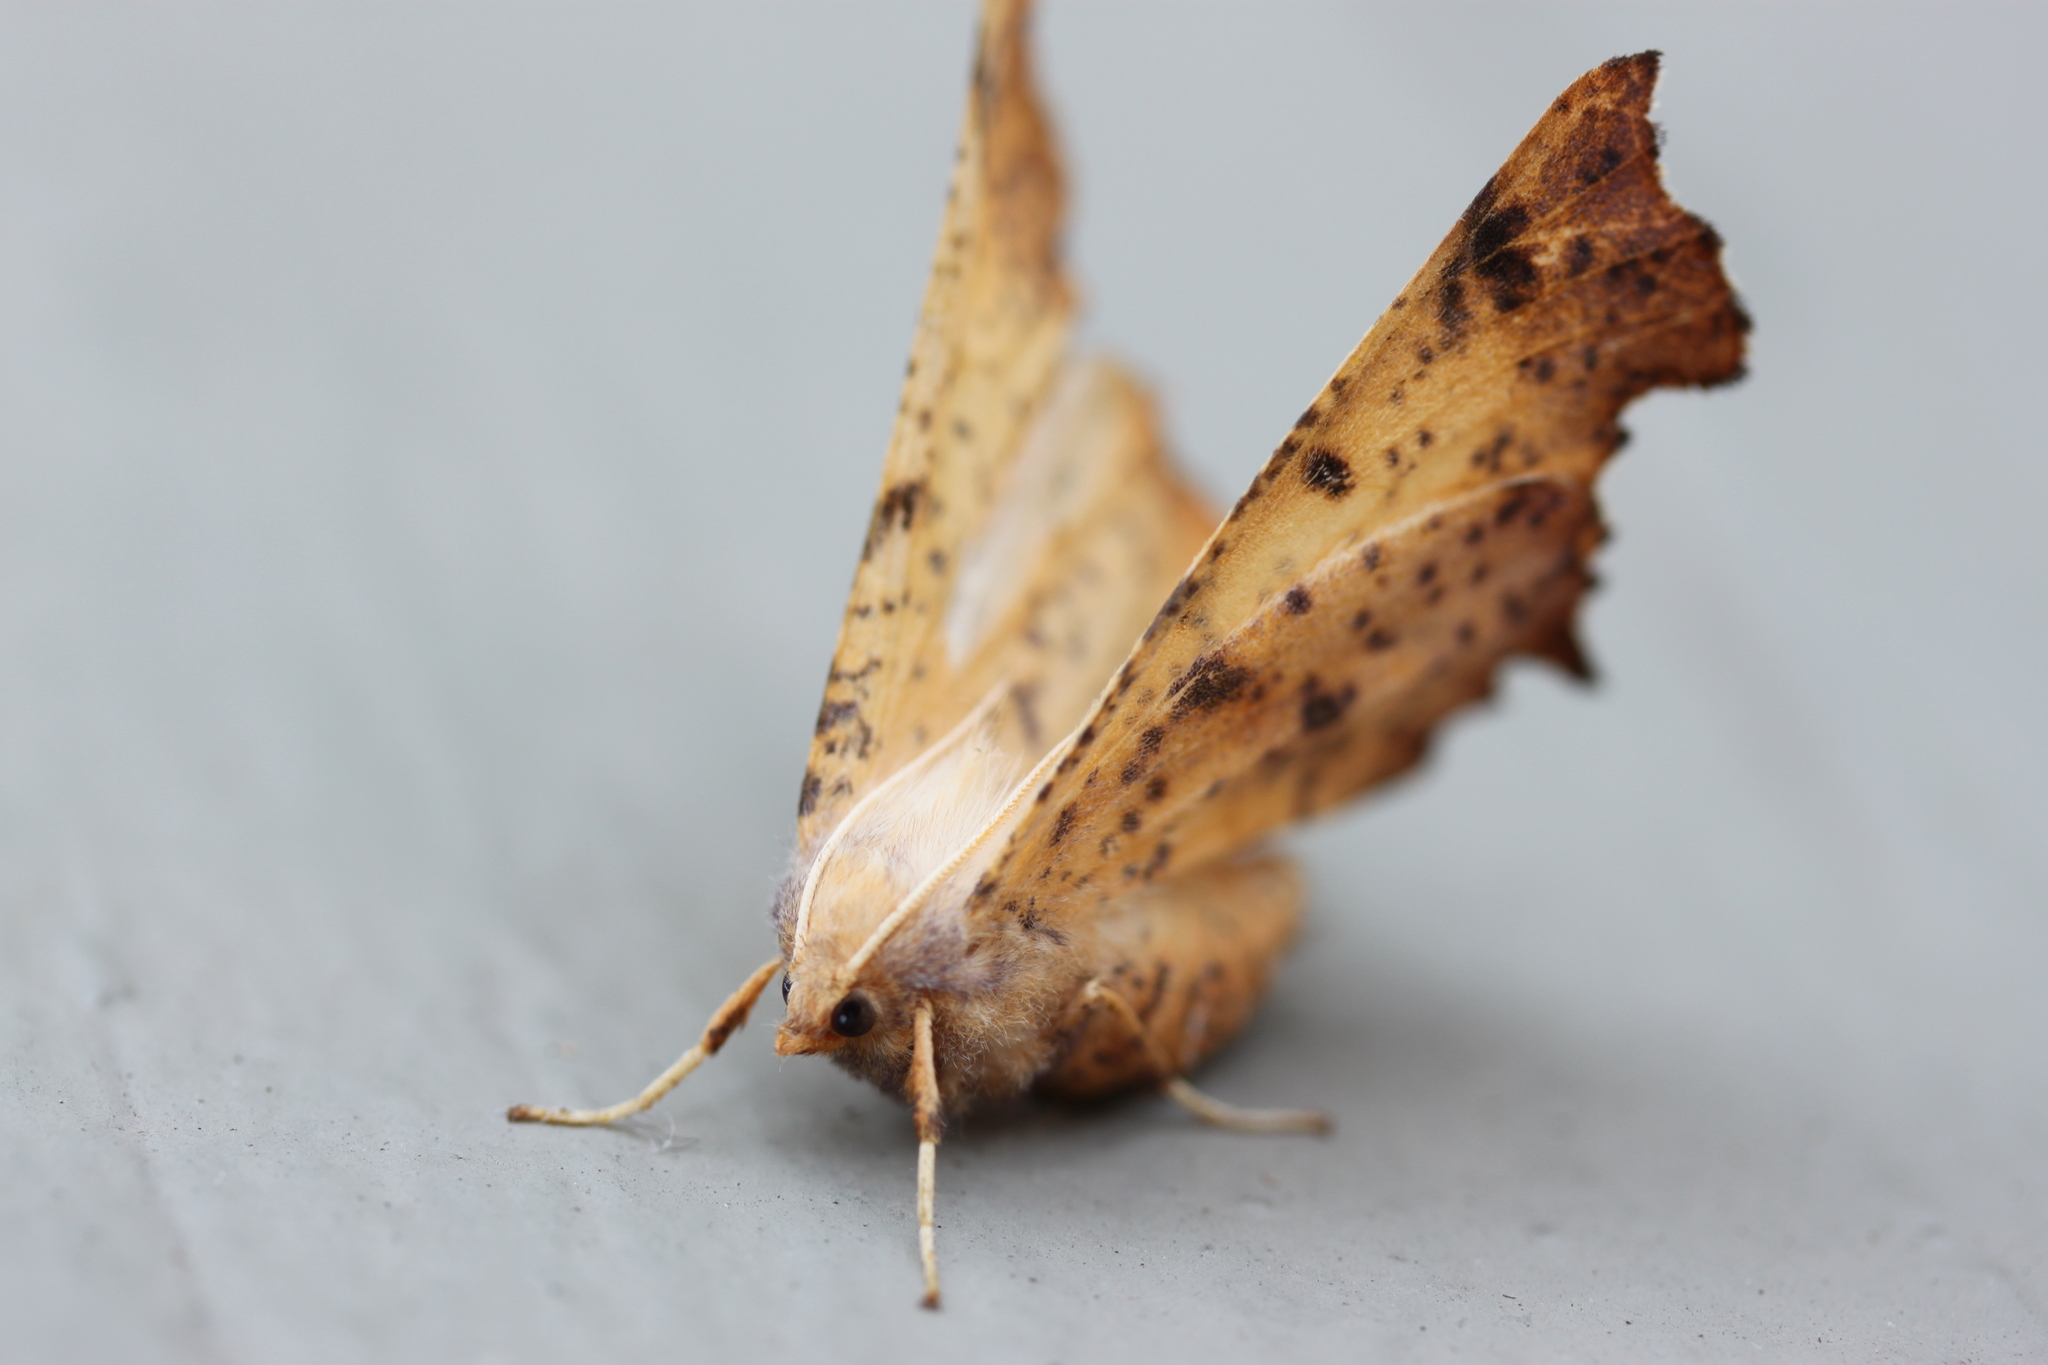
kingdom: Animalia
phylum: Arthropoda
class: Insecta
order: Lepidoptera
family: Geometridae
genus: Ennomos
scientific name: Ennomos magnaria
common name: Maple spanworm
